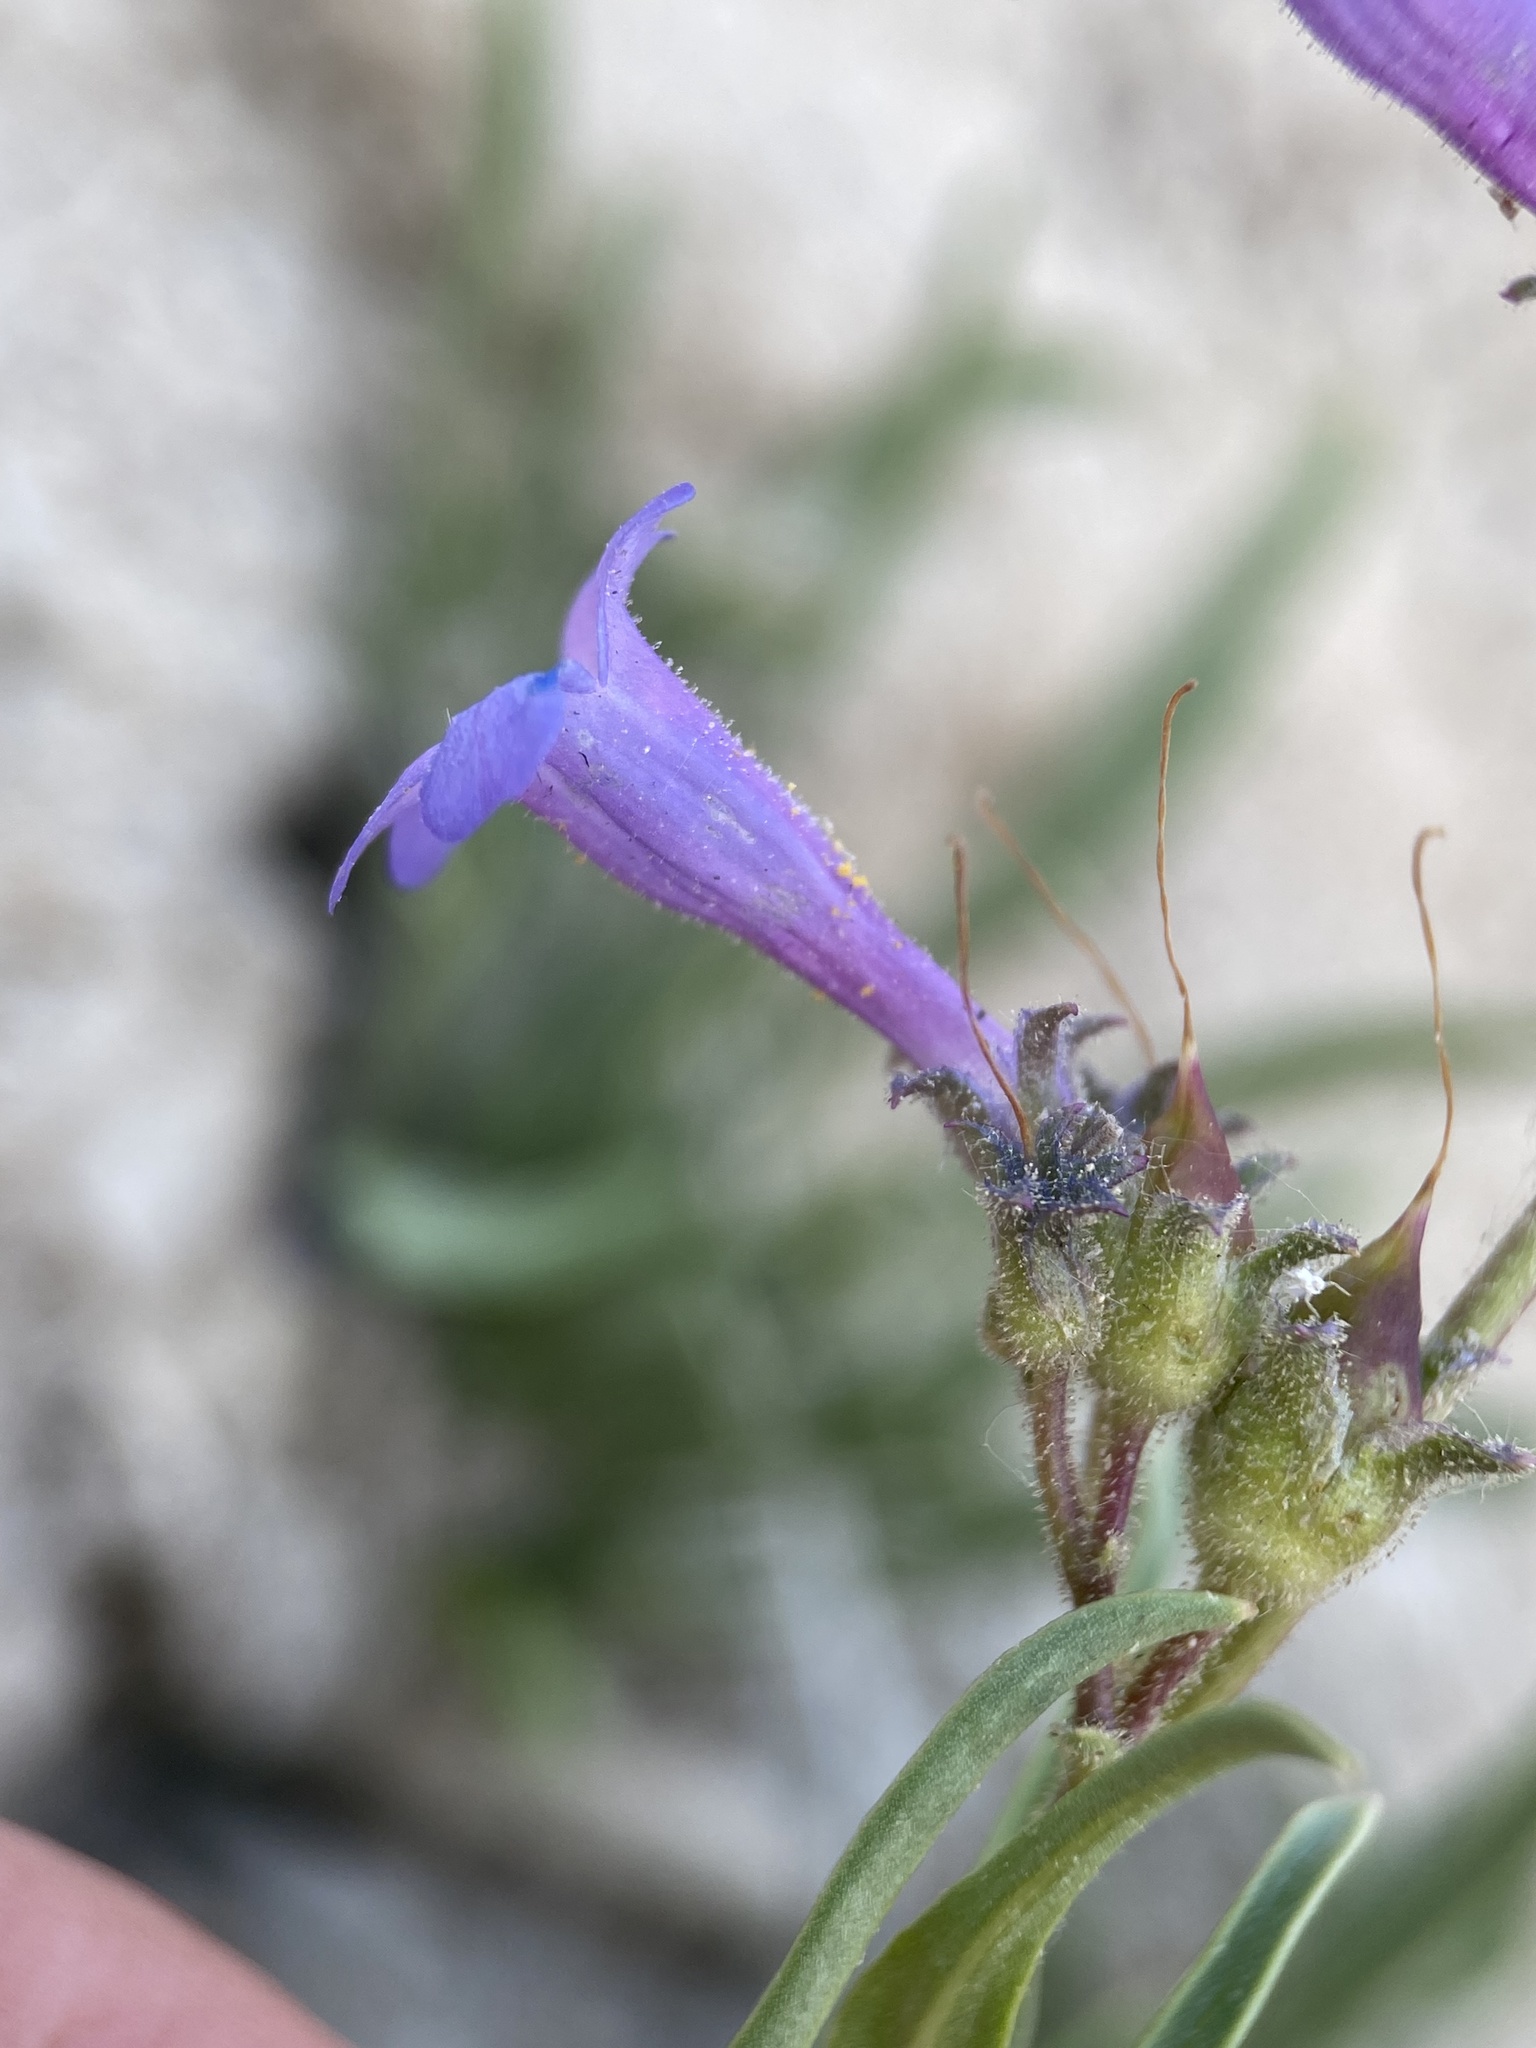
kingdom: Plantae
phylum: Tracheophyta
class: Magnoliopsida
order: Lamiales
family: Plantaginaceae
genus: Penstemon
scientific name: Penstemon aridus
